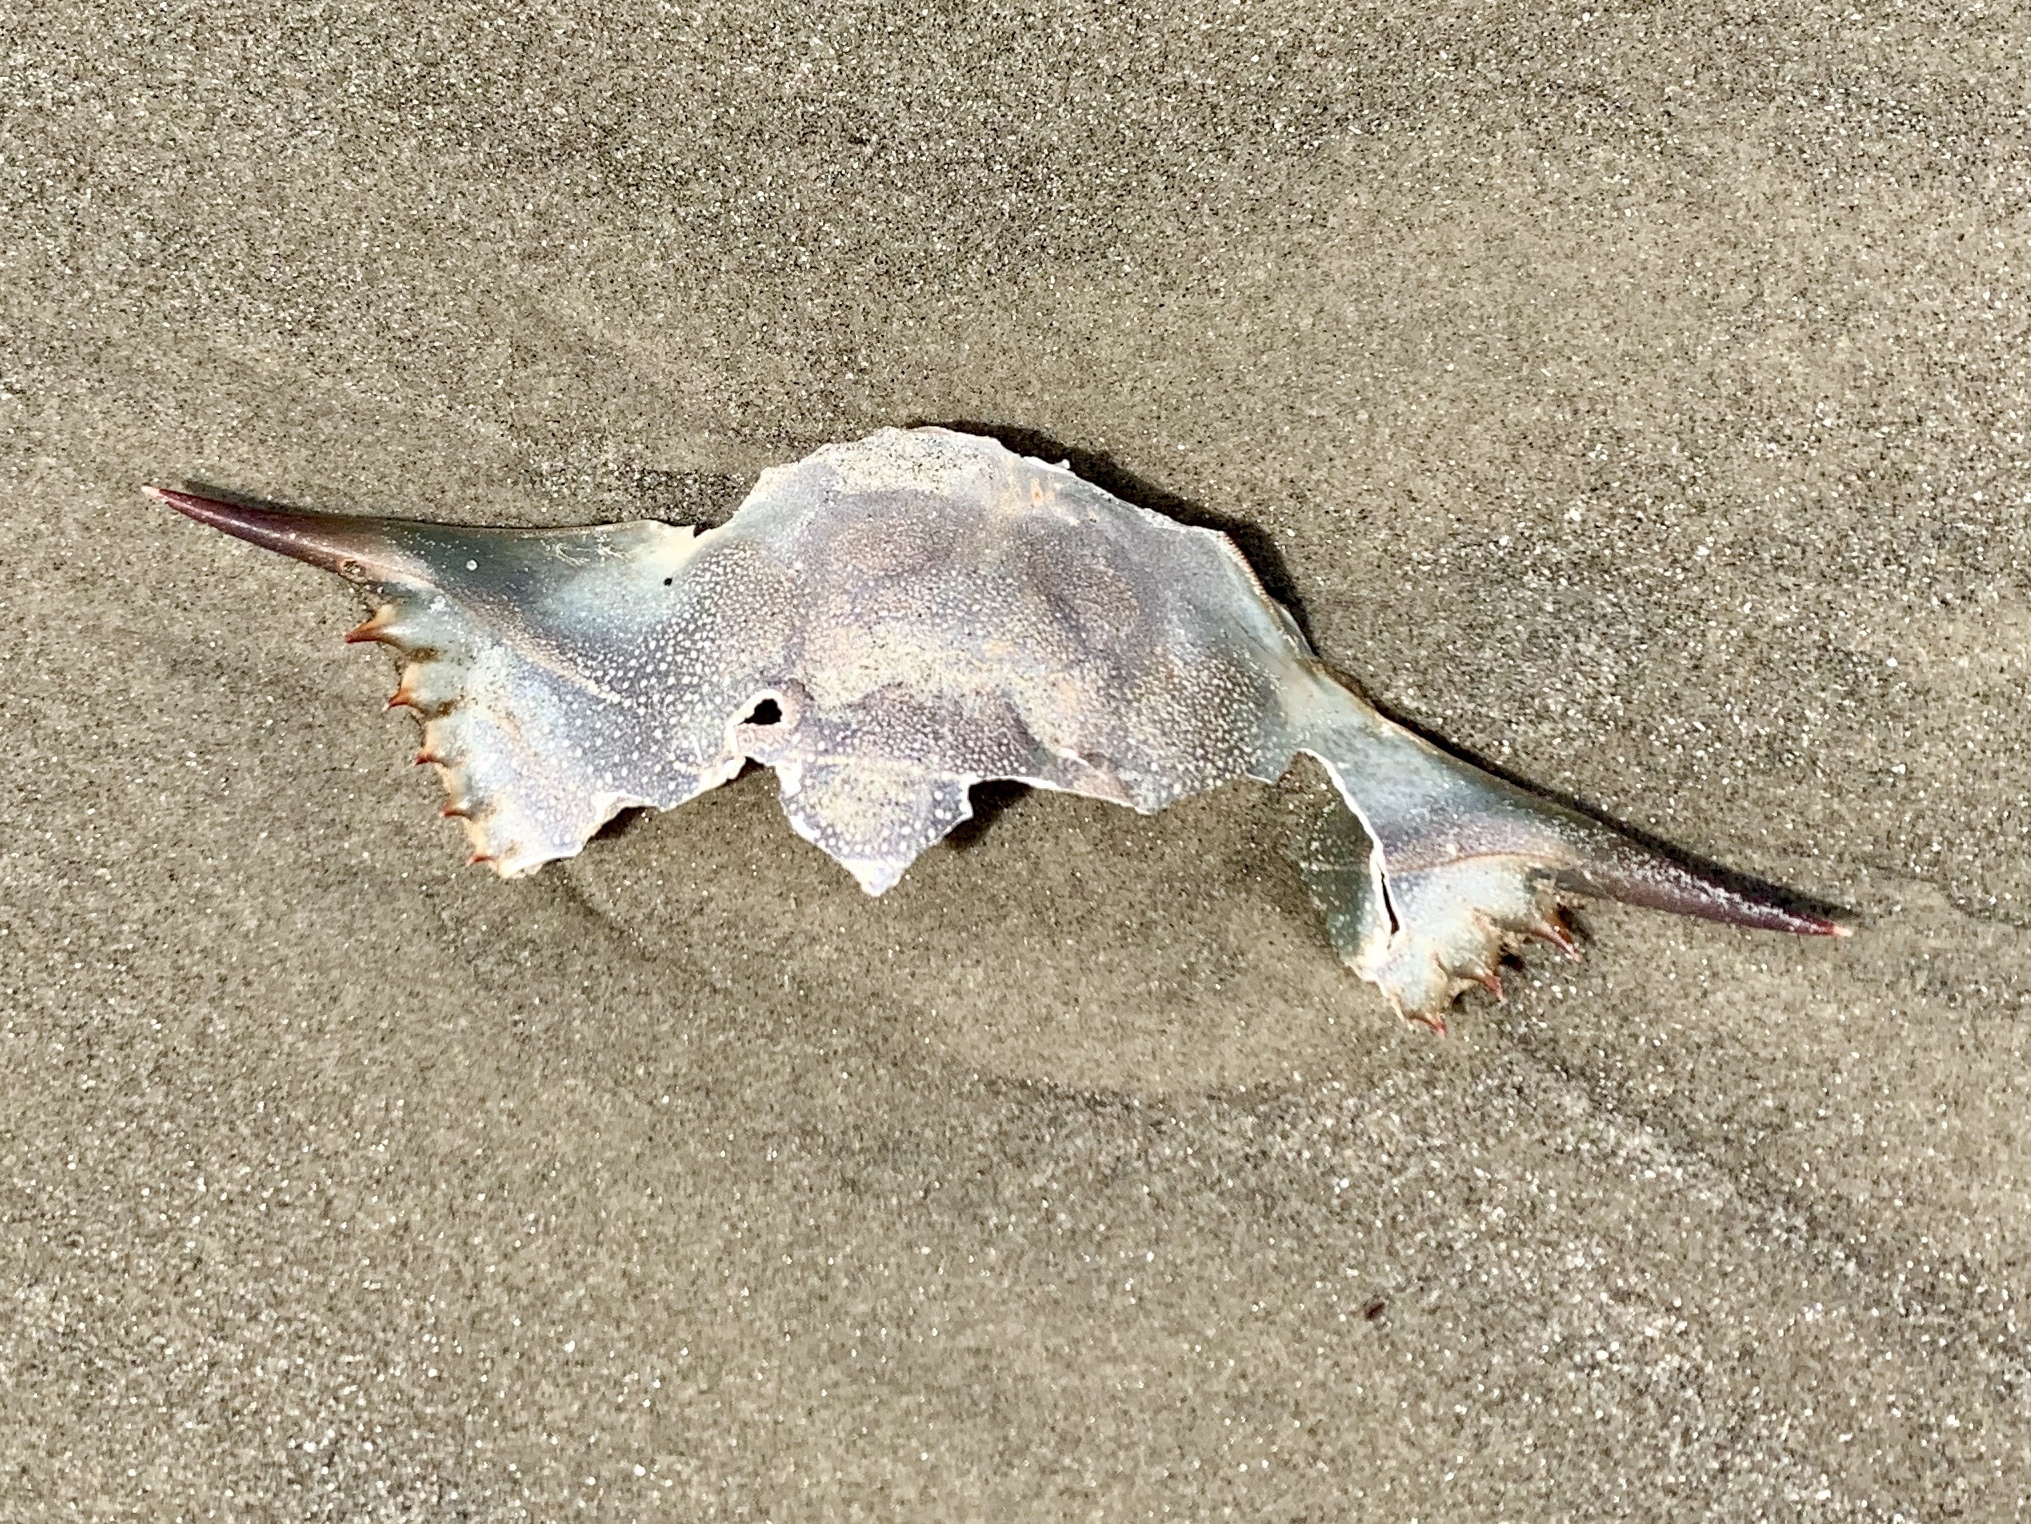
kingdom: Animalia
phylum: Arthropoda
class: Malacostraca
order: Decapoda
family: Portunidae
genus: Callinectes
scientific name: Callinectes sapidus
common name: Blue crab
